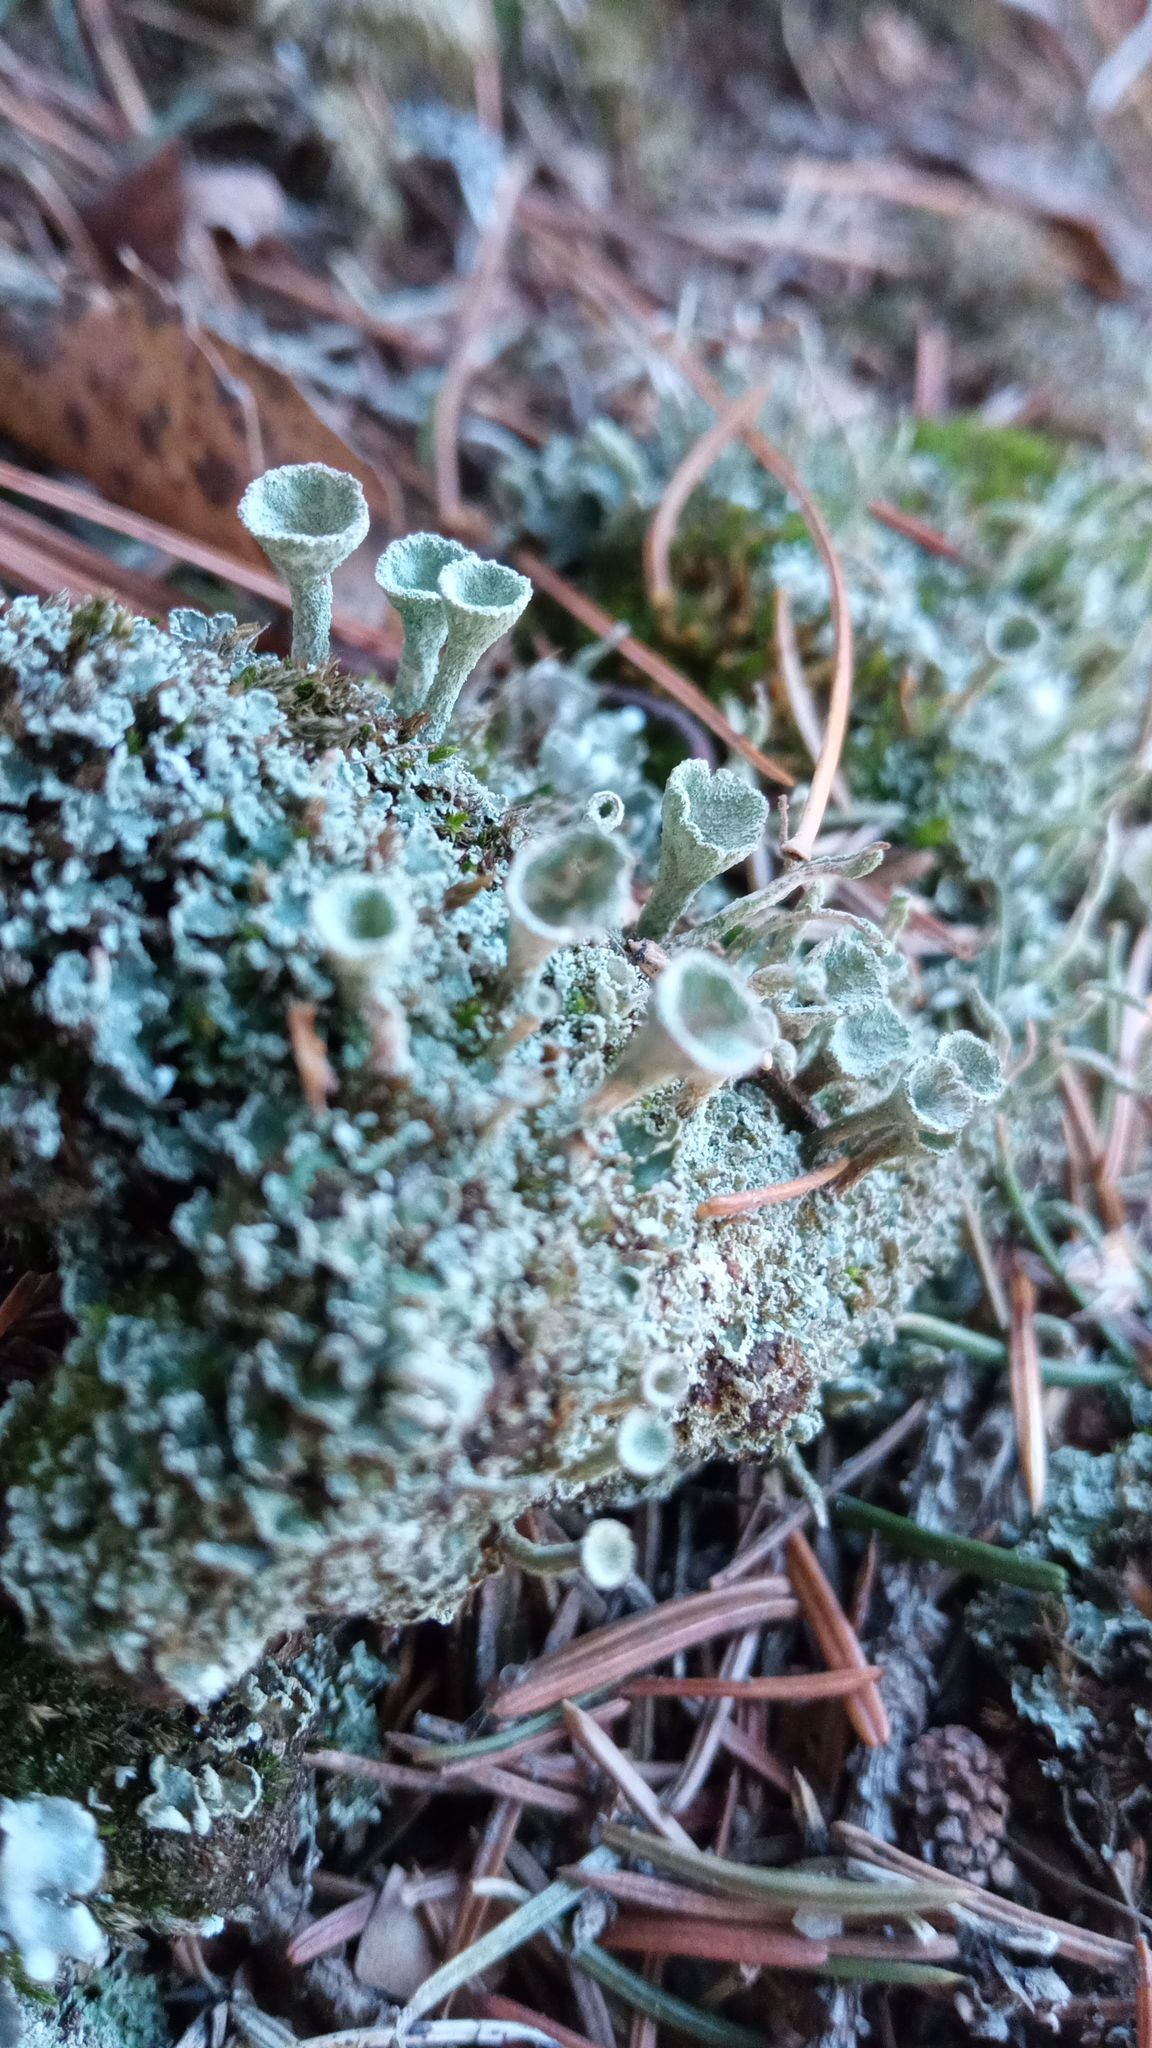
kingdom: Fungi
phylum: Ascomycota
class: Lecanoromycetes
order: Lecanorales
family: Cladoniaceae
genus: Cladonia
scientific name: Cladonia fimbriata
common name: Powdered trumpet lichen
